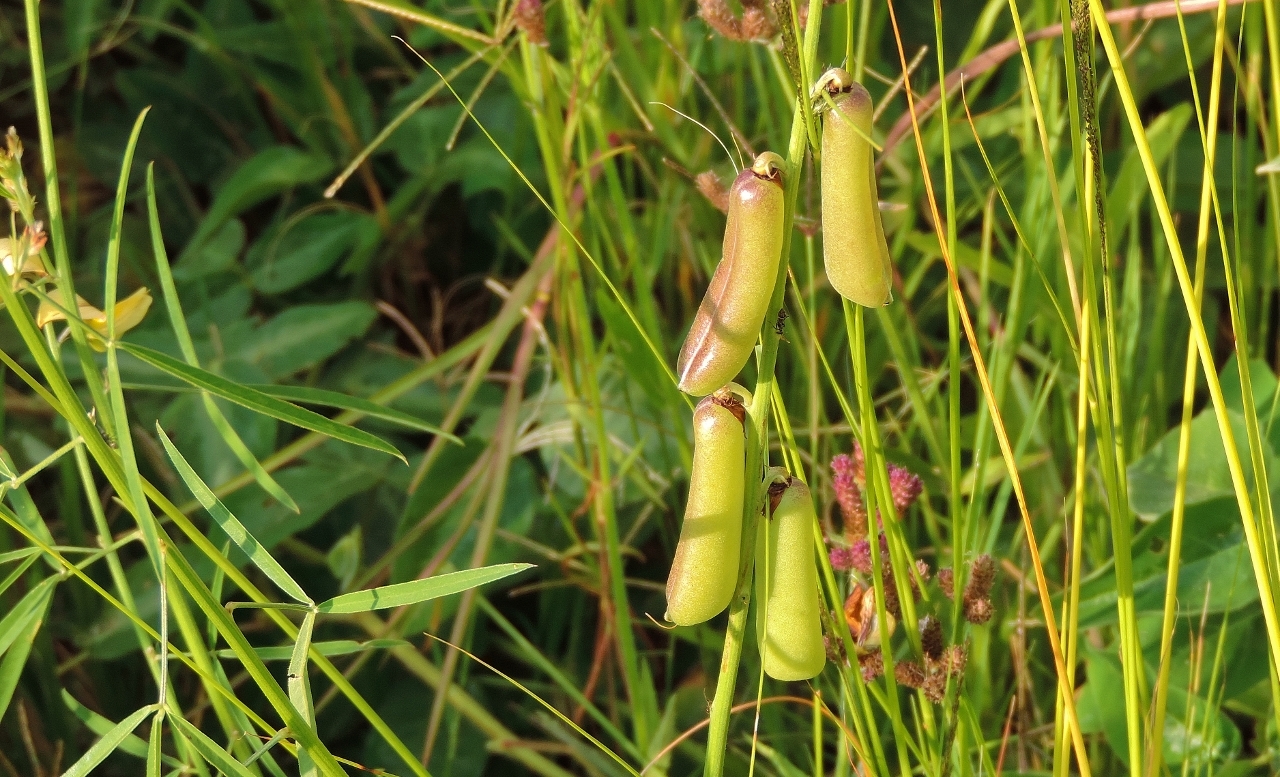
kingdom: Plantae
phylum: Tracheophyta
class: Magnoliopsida
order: Fabales
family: Fabaceae
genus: Crotalaria
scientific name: Crotalaria ochroleuca
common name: Slender leaf rattlebox
